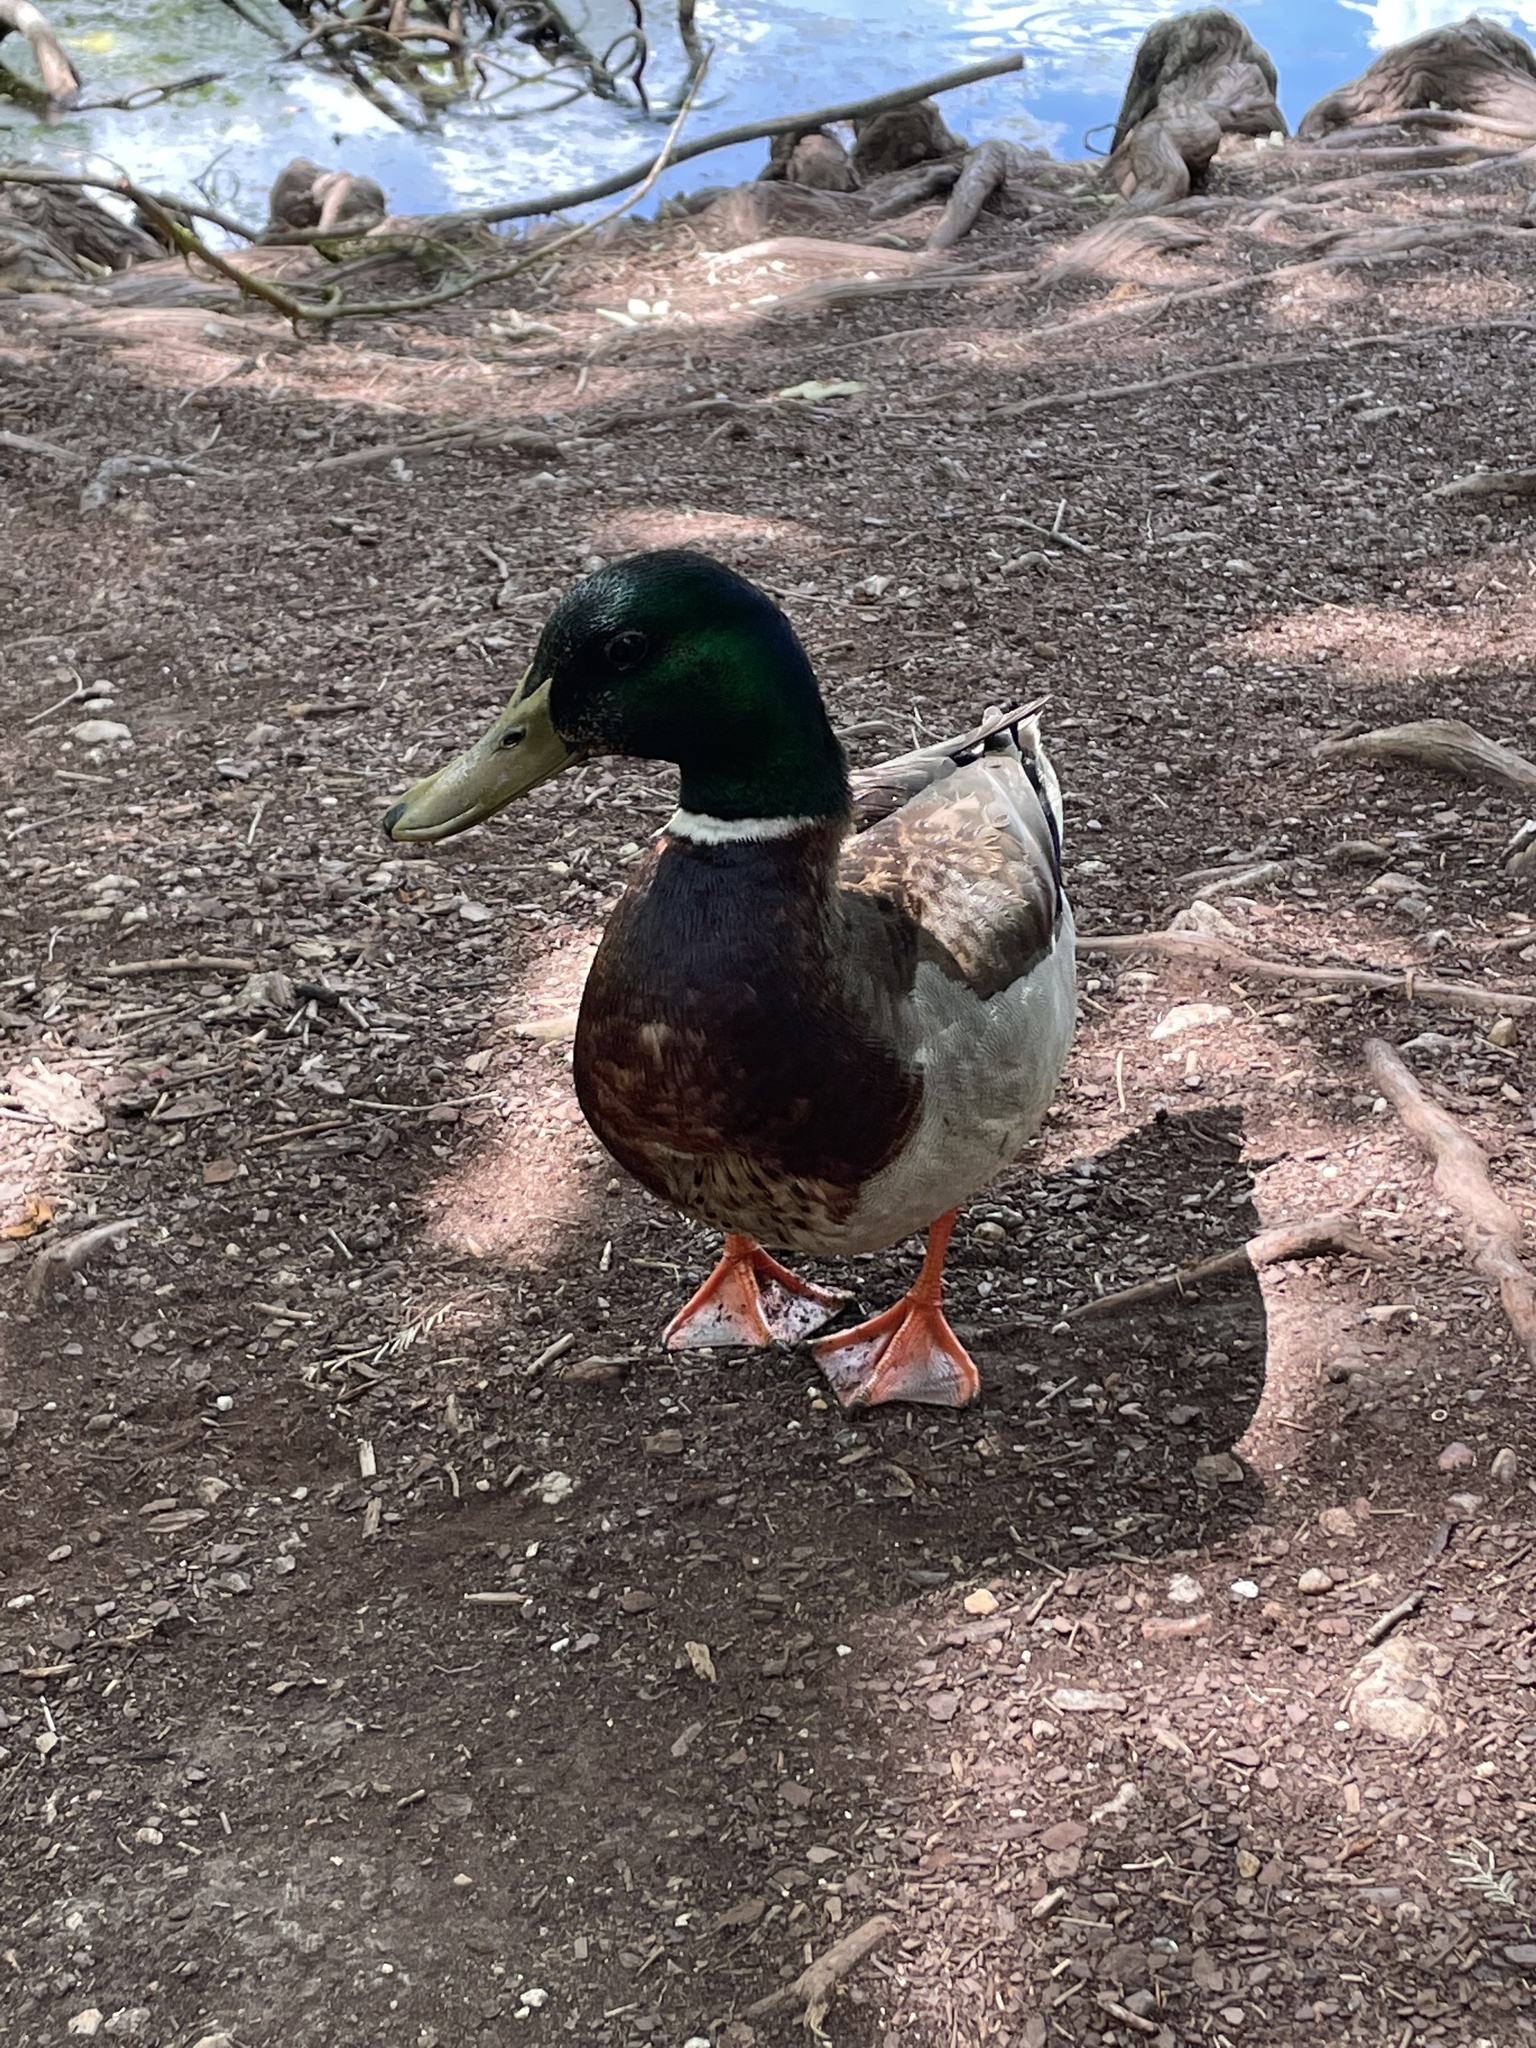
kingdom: Animalia
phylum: Chordata
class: Aves
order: Anseriformes
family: Anatidae
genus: Anas
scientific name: Anas platyrhynchos
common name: Mallard
